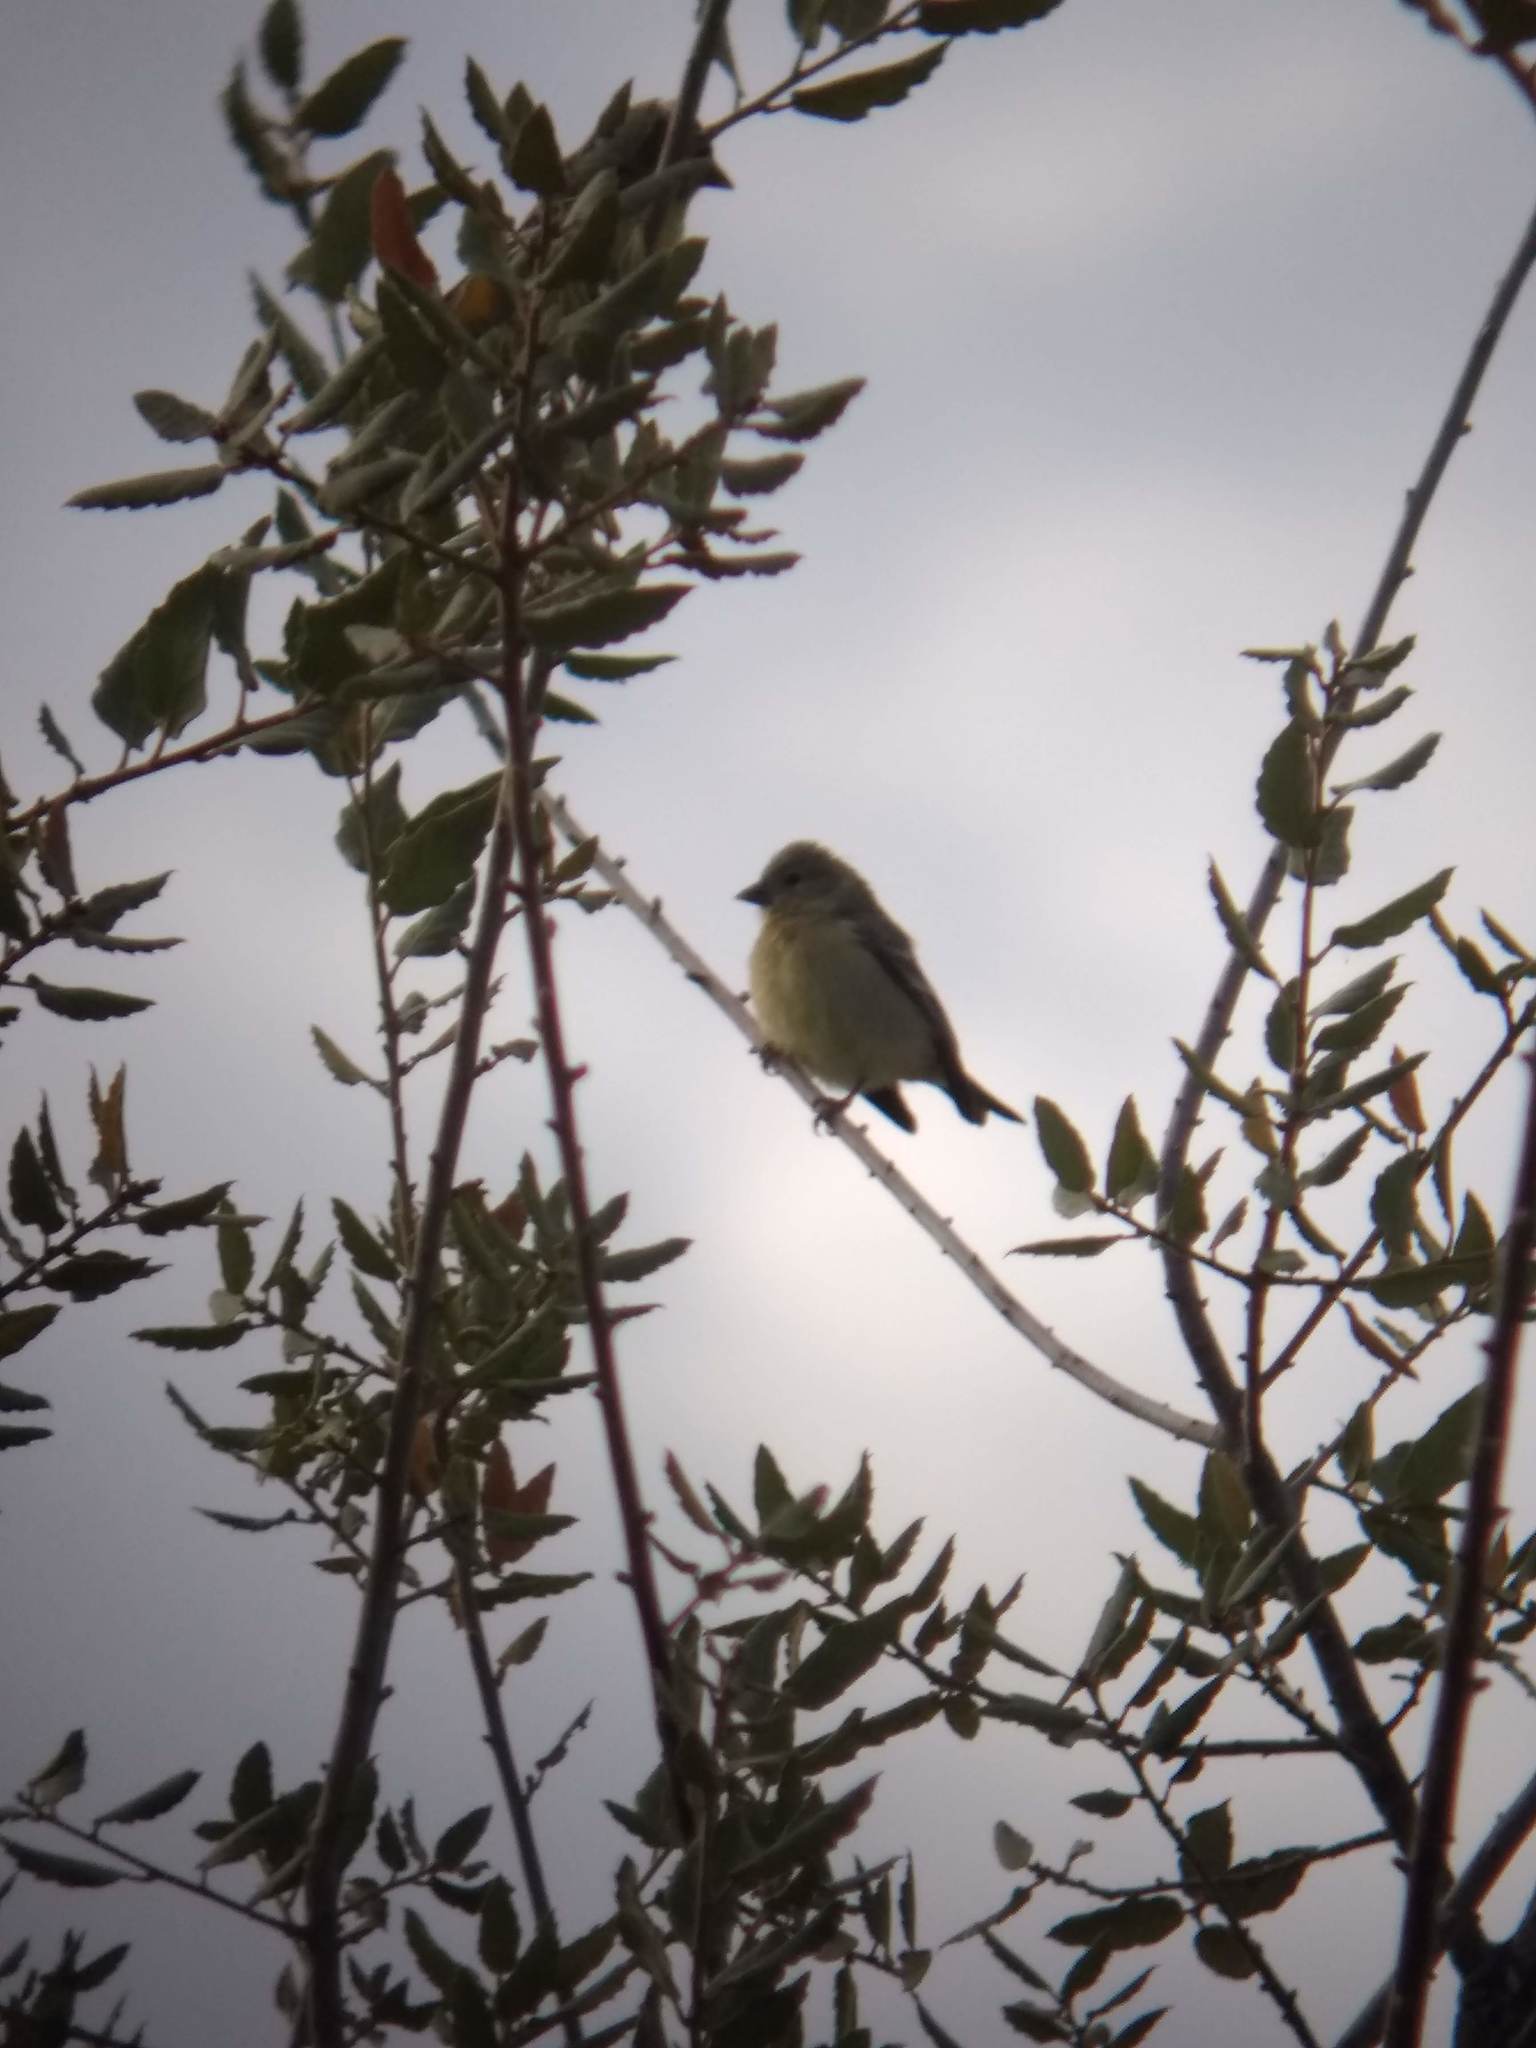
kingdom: Animalia
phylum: Chordata
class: Aves
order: Passeriformes
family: Fringillidae
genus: Spinus
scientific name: Spinus psaltria
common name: Lesser goldfinch
